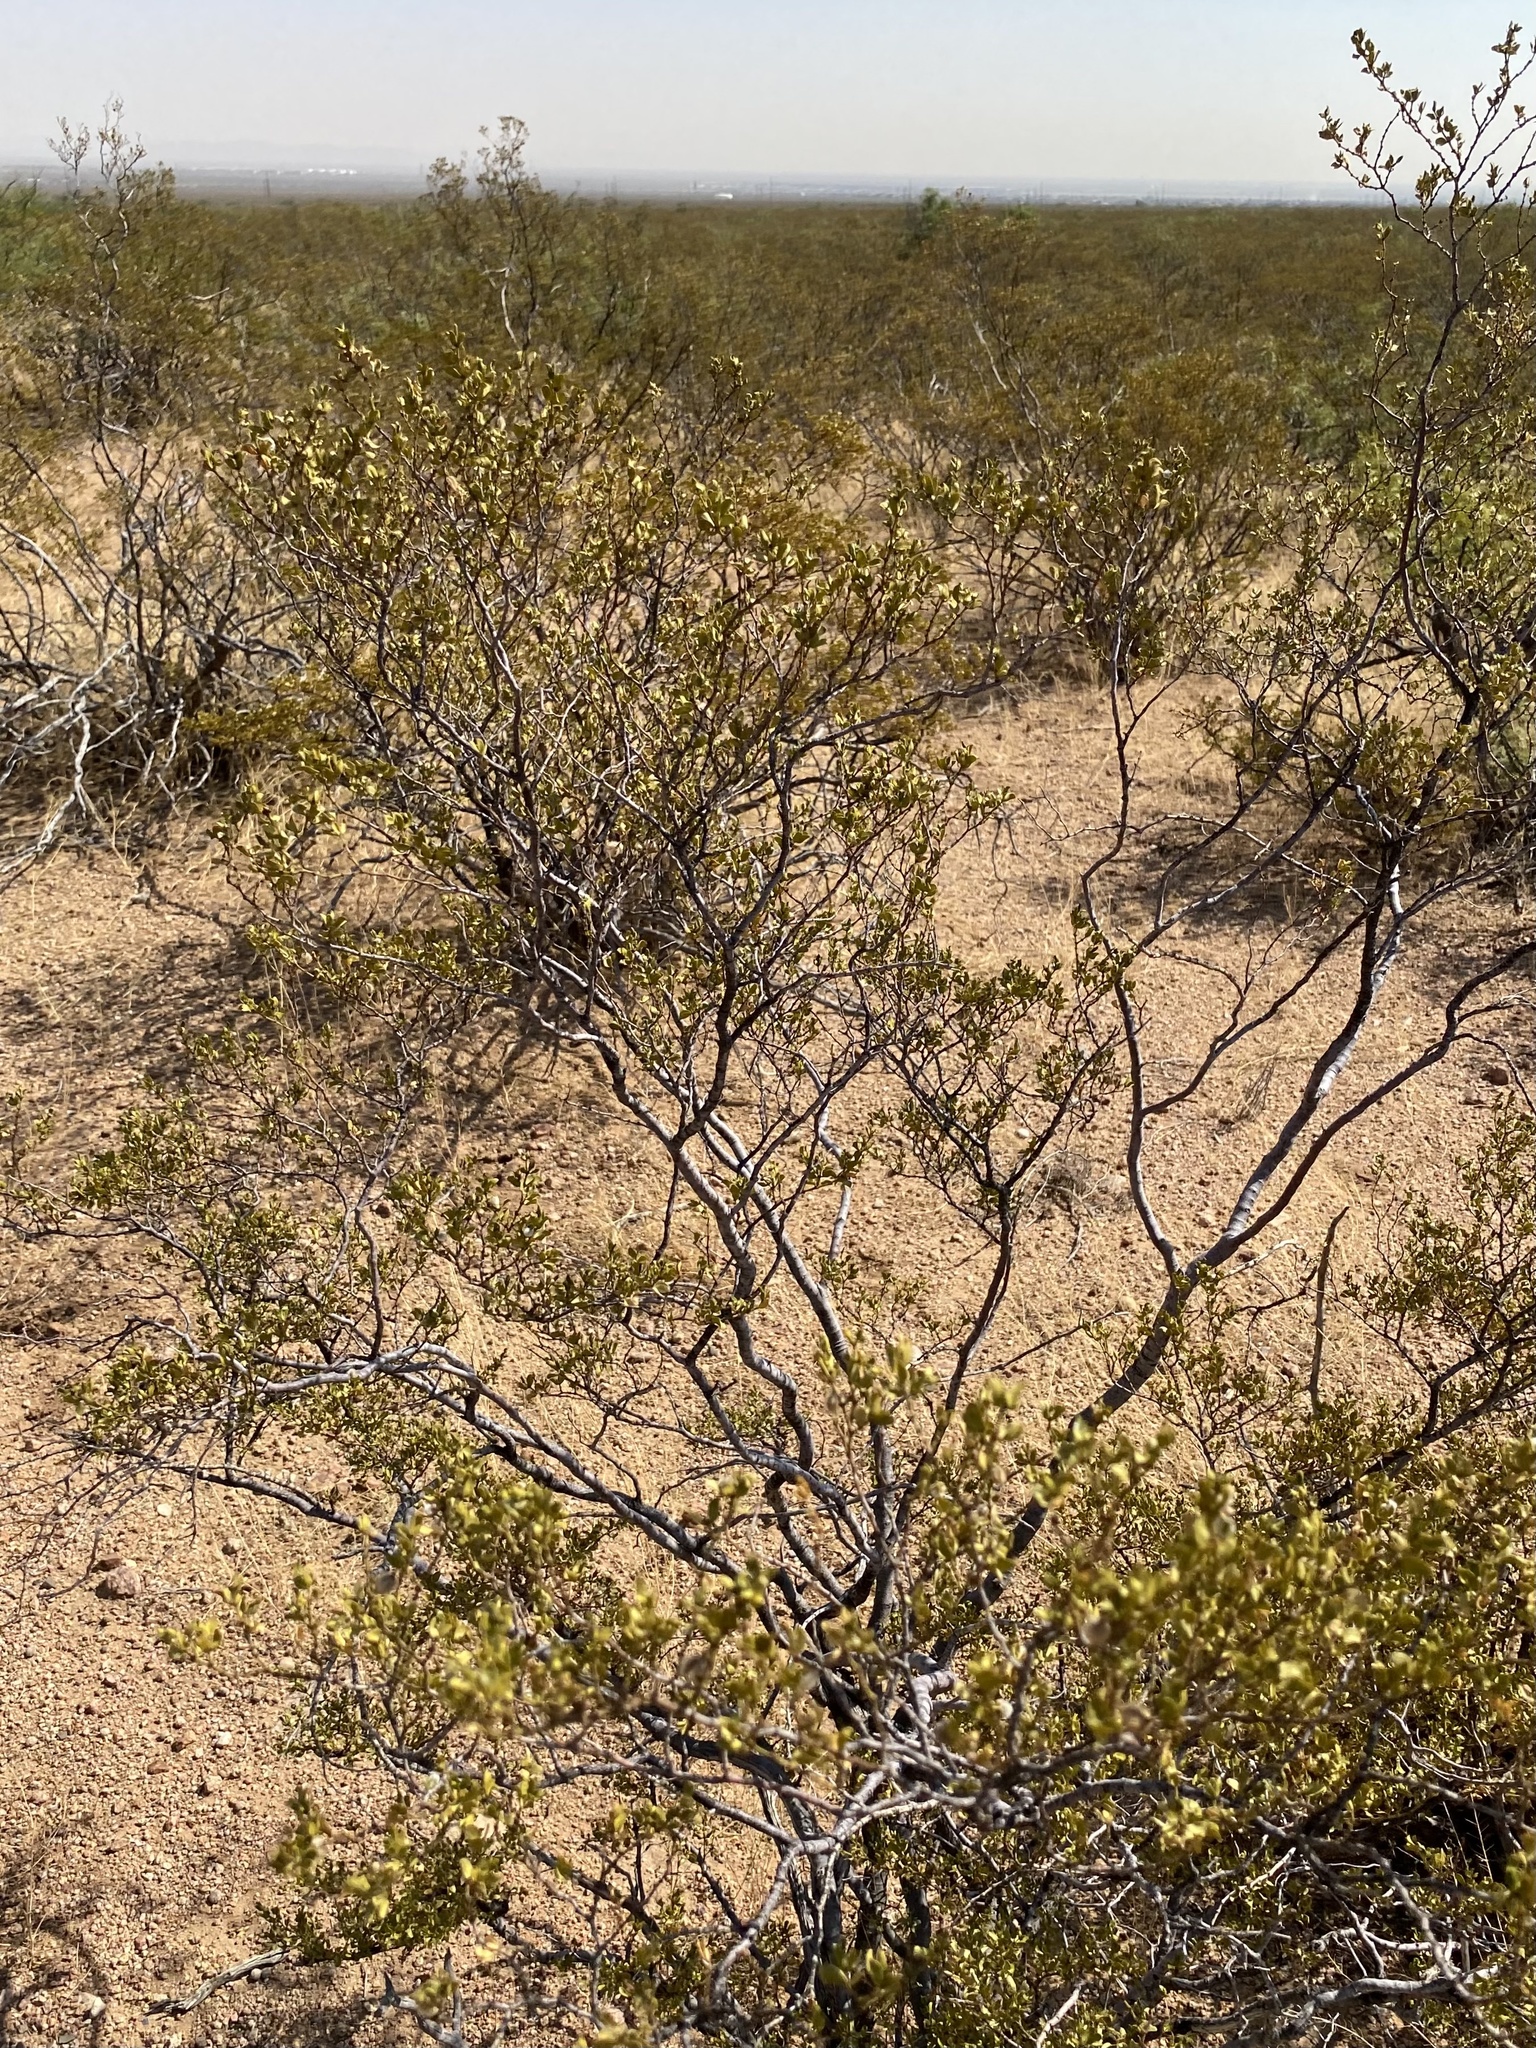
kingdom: Plantae
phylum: Tracheophyta
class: Magnoliopsida
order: Zygophyllales
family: Zygophyllaceae
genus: Larrea
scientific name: Larrea tridentata
